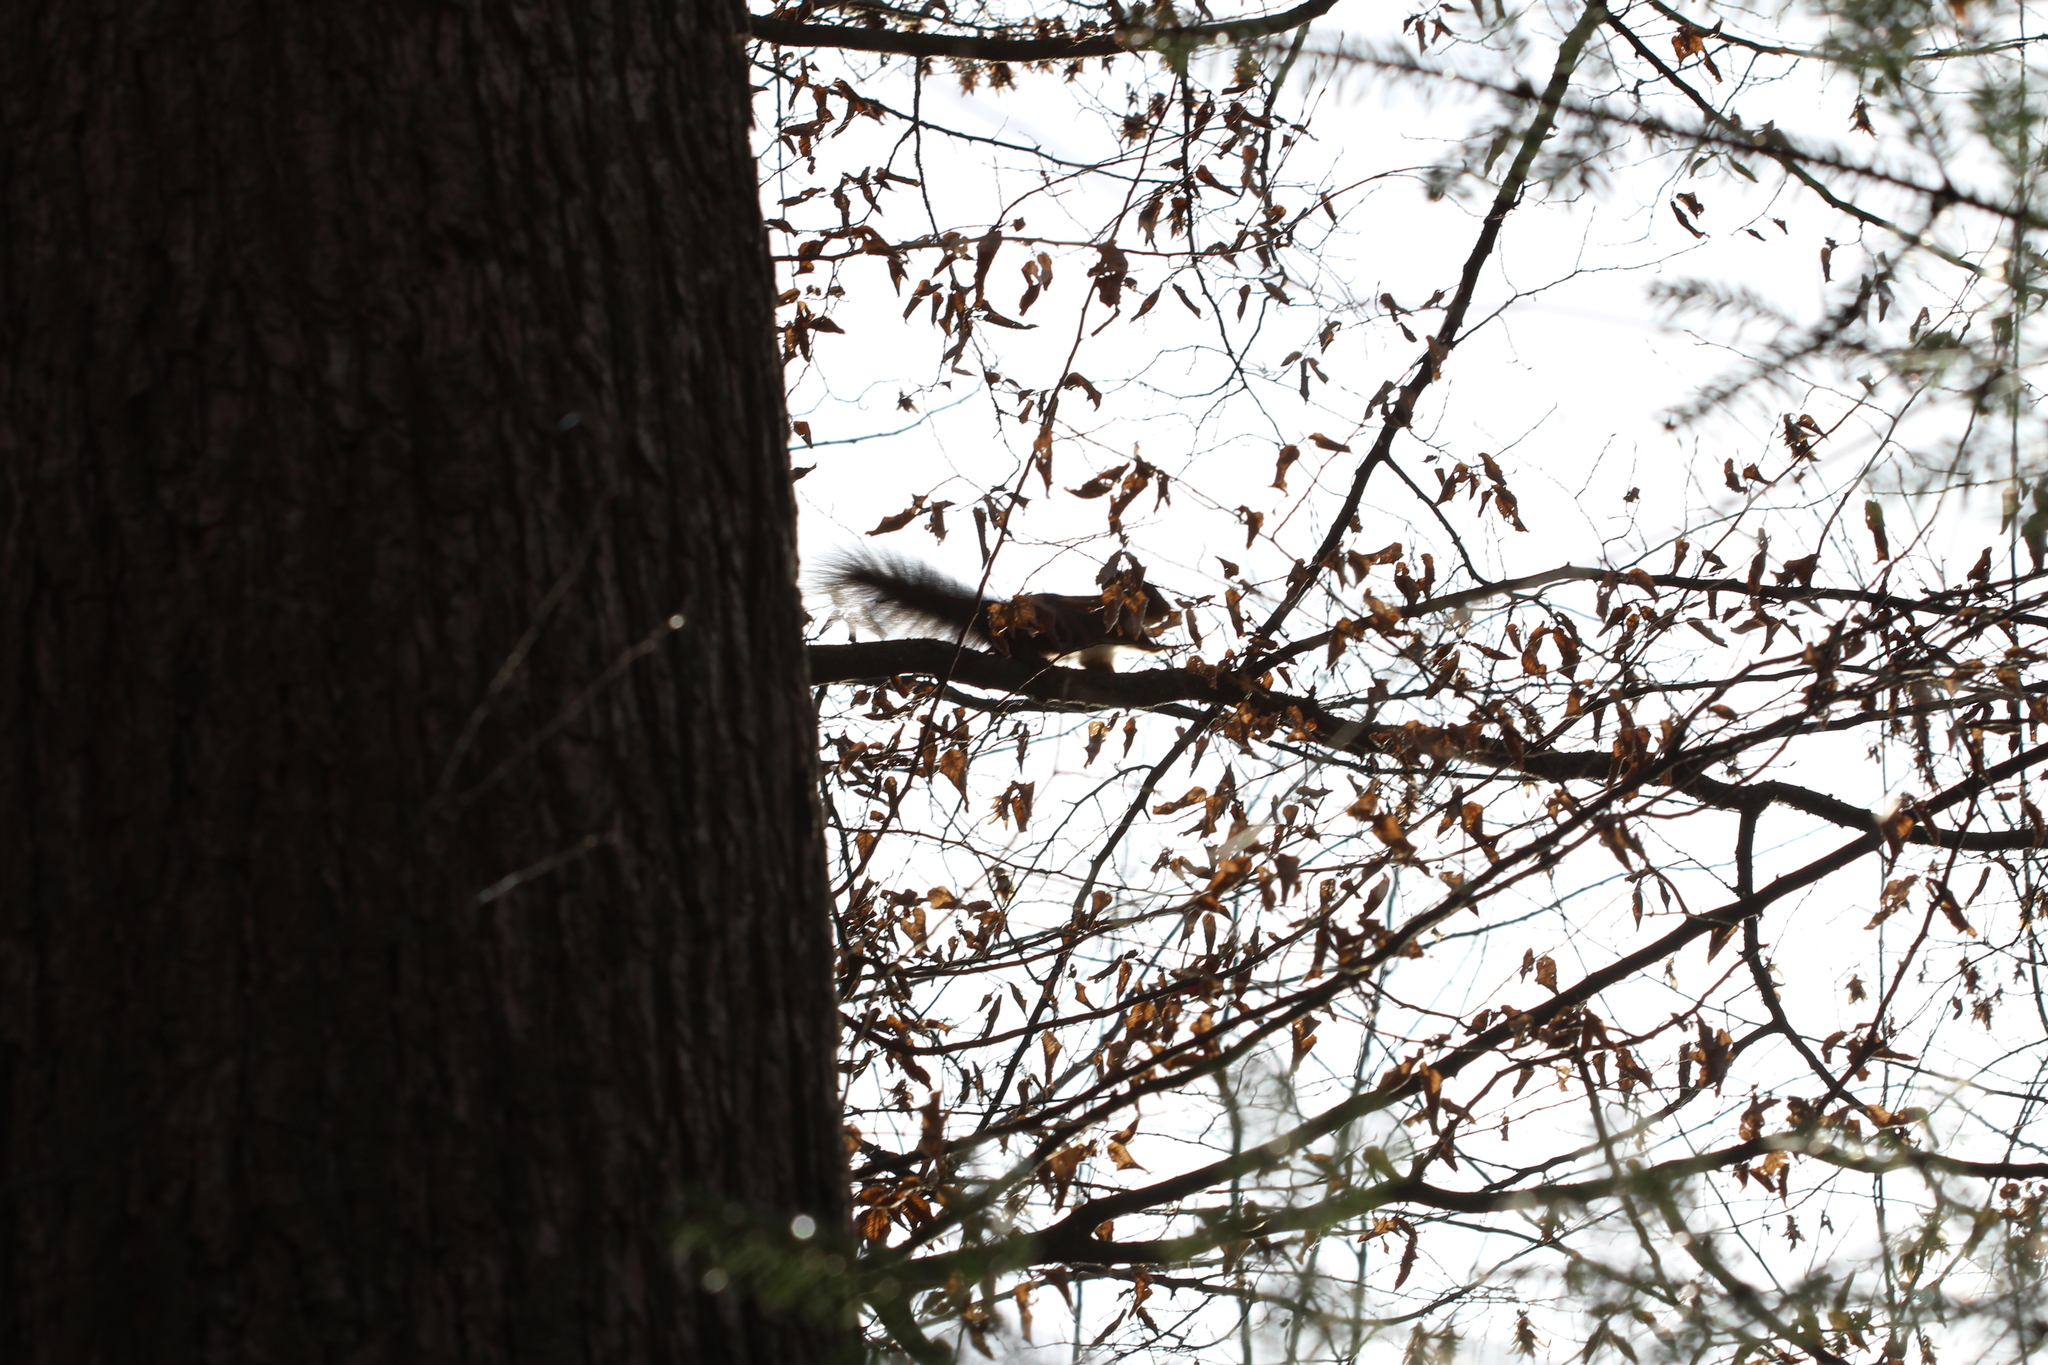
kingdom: Animalia
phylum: Chordata
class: Mammalia
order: Rodentia
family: Sciuridae
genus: Sciurus
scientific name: Sciurus vulgaris
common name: Eurasian red squirrel
